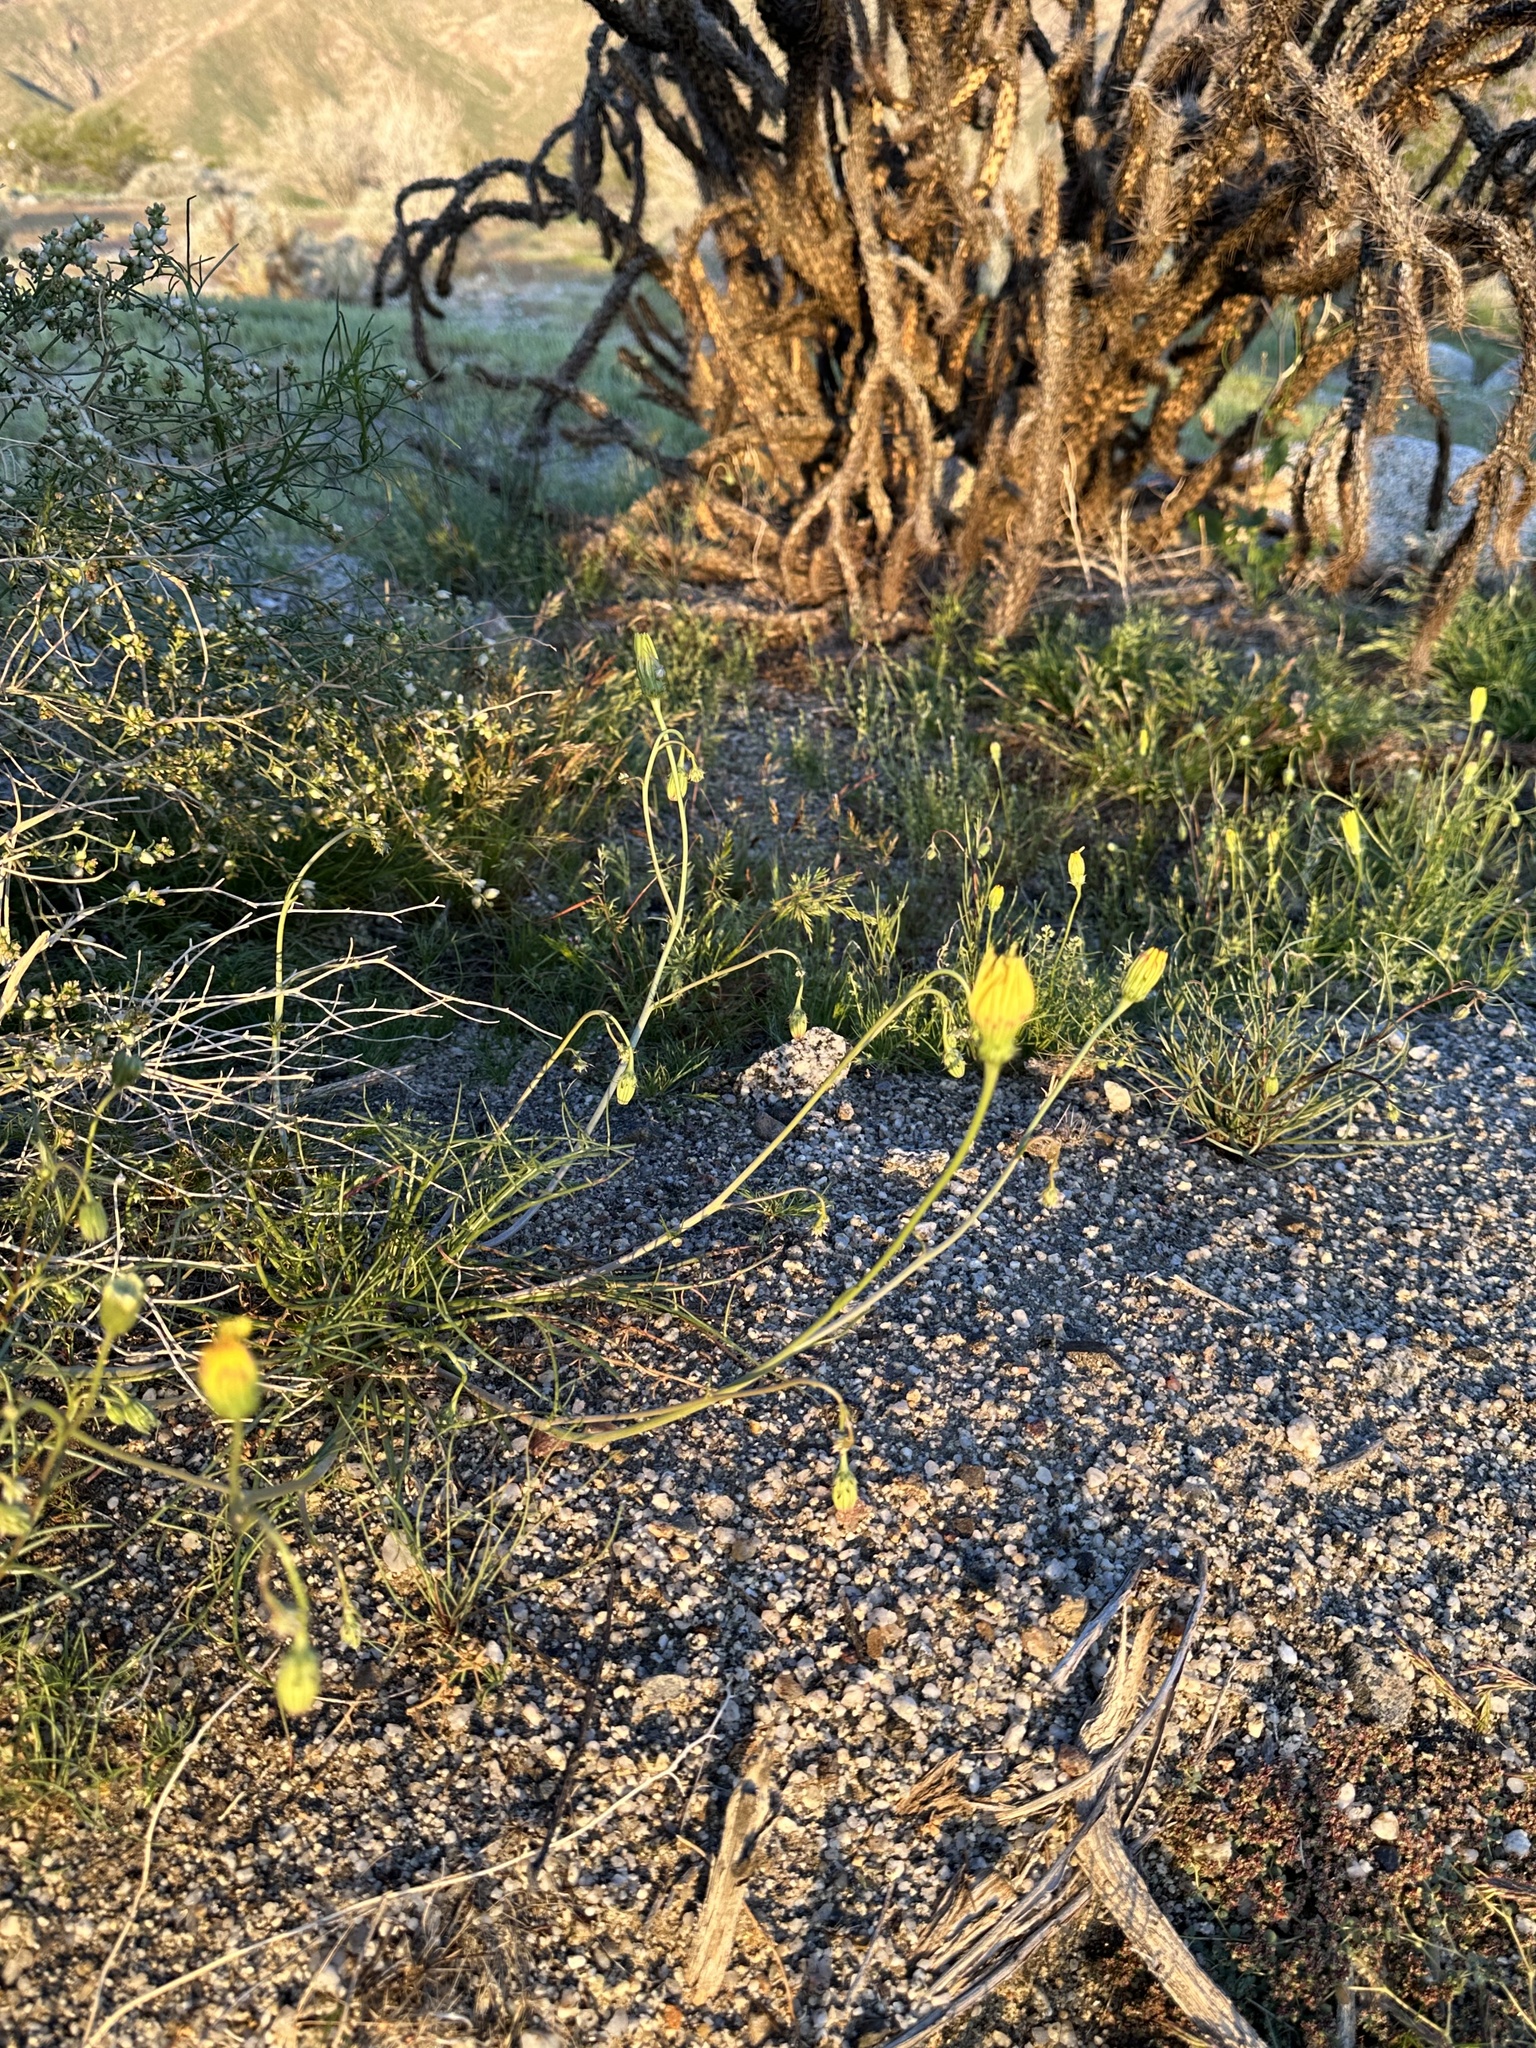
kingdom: Plantae
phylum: Tracheophyta
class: Magnoliopsida
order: Asterales
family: Asteraceae
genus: Malacothrix
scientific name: Malacothrix glabrata
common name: Smooth desert-dandelion
